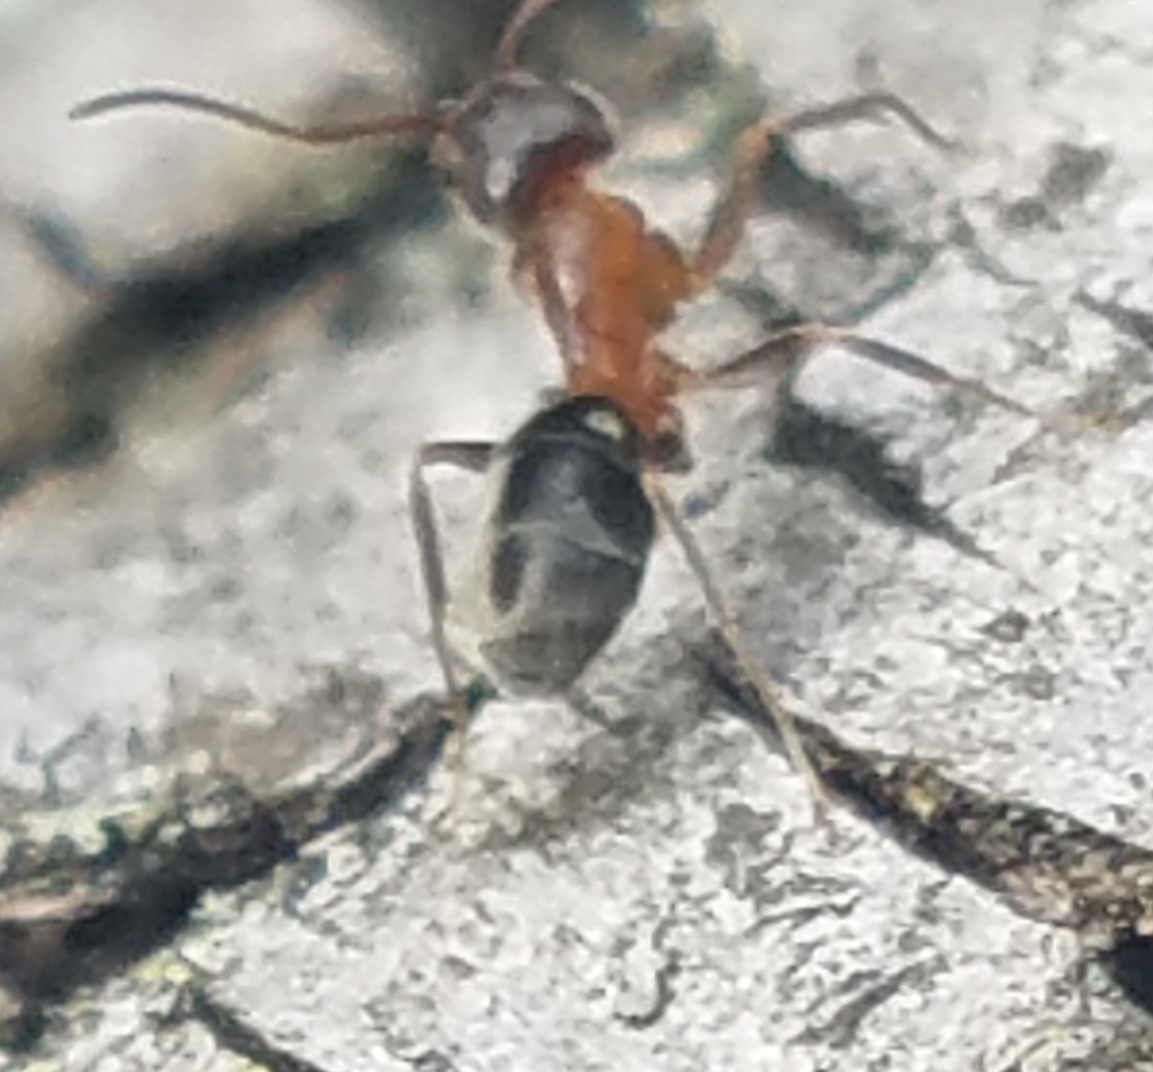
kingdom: Animalia
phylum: Arthropoda
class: Insecta
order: Hymenoptera
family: Formicidae
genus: Liometopum
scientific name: Liometopum occidentale
